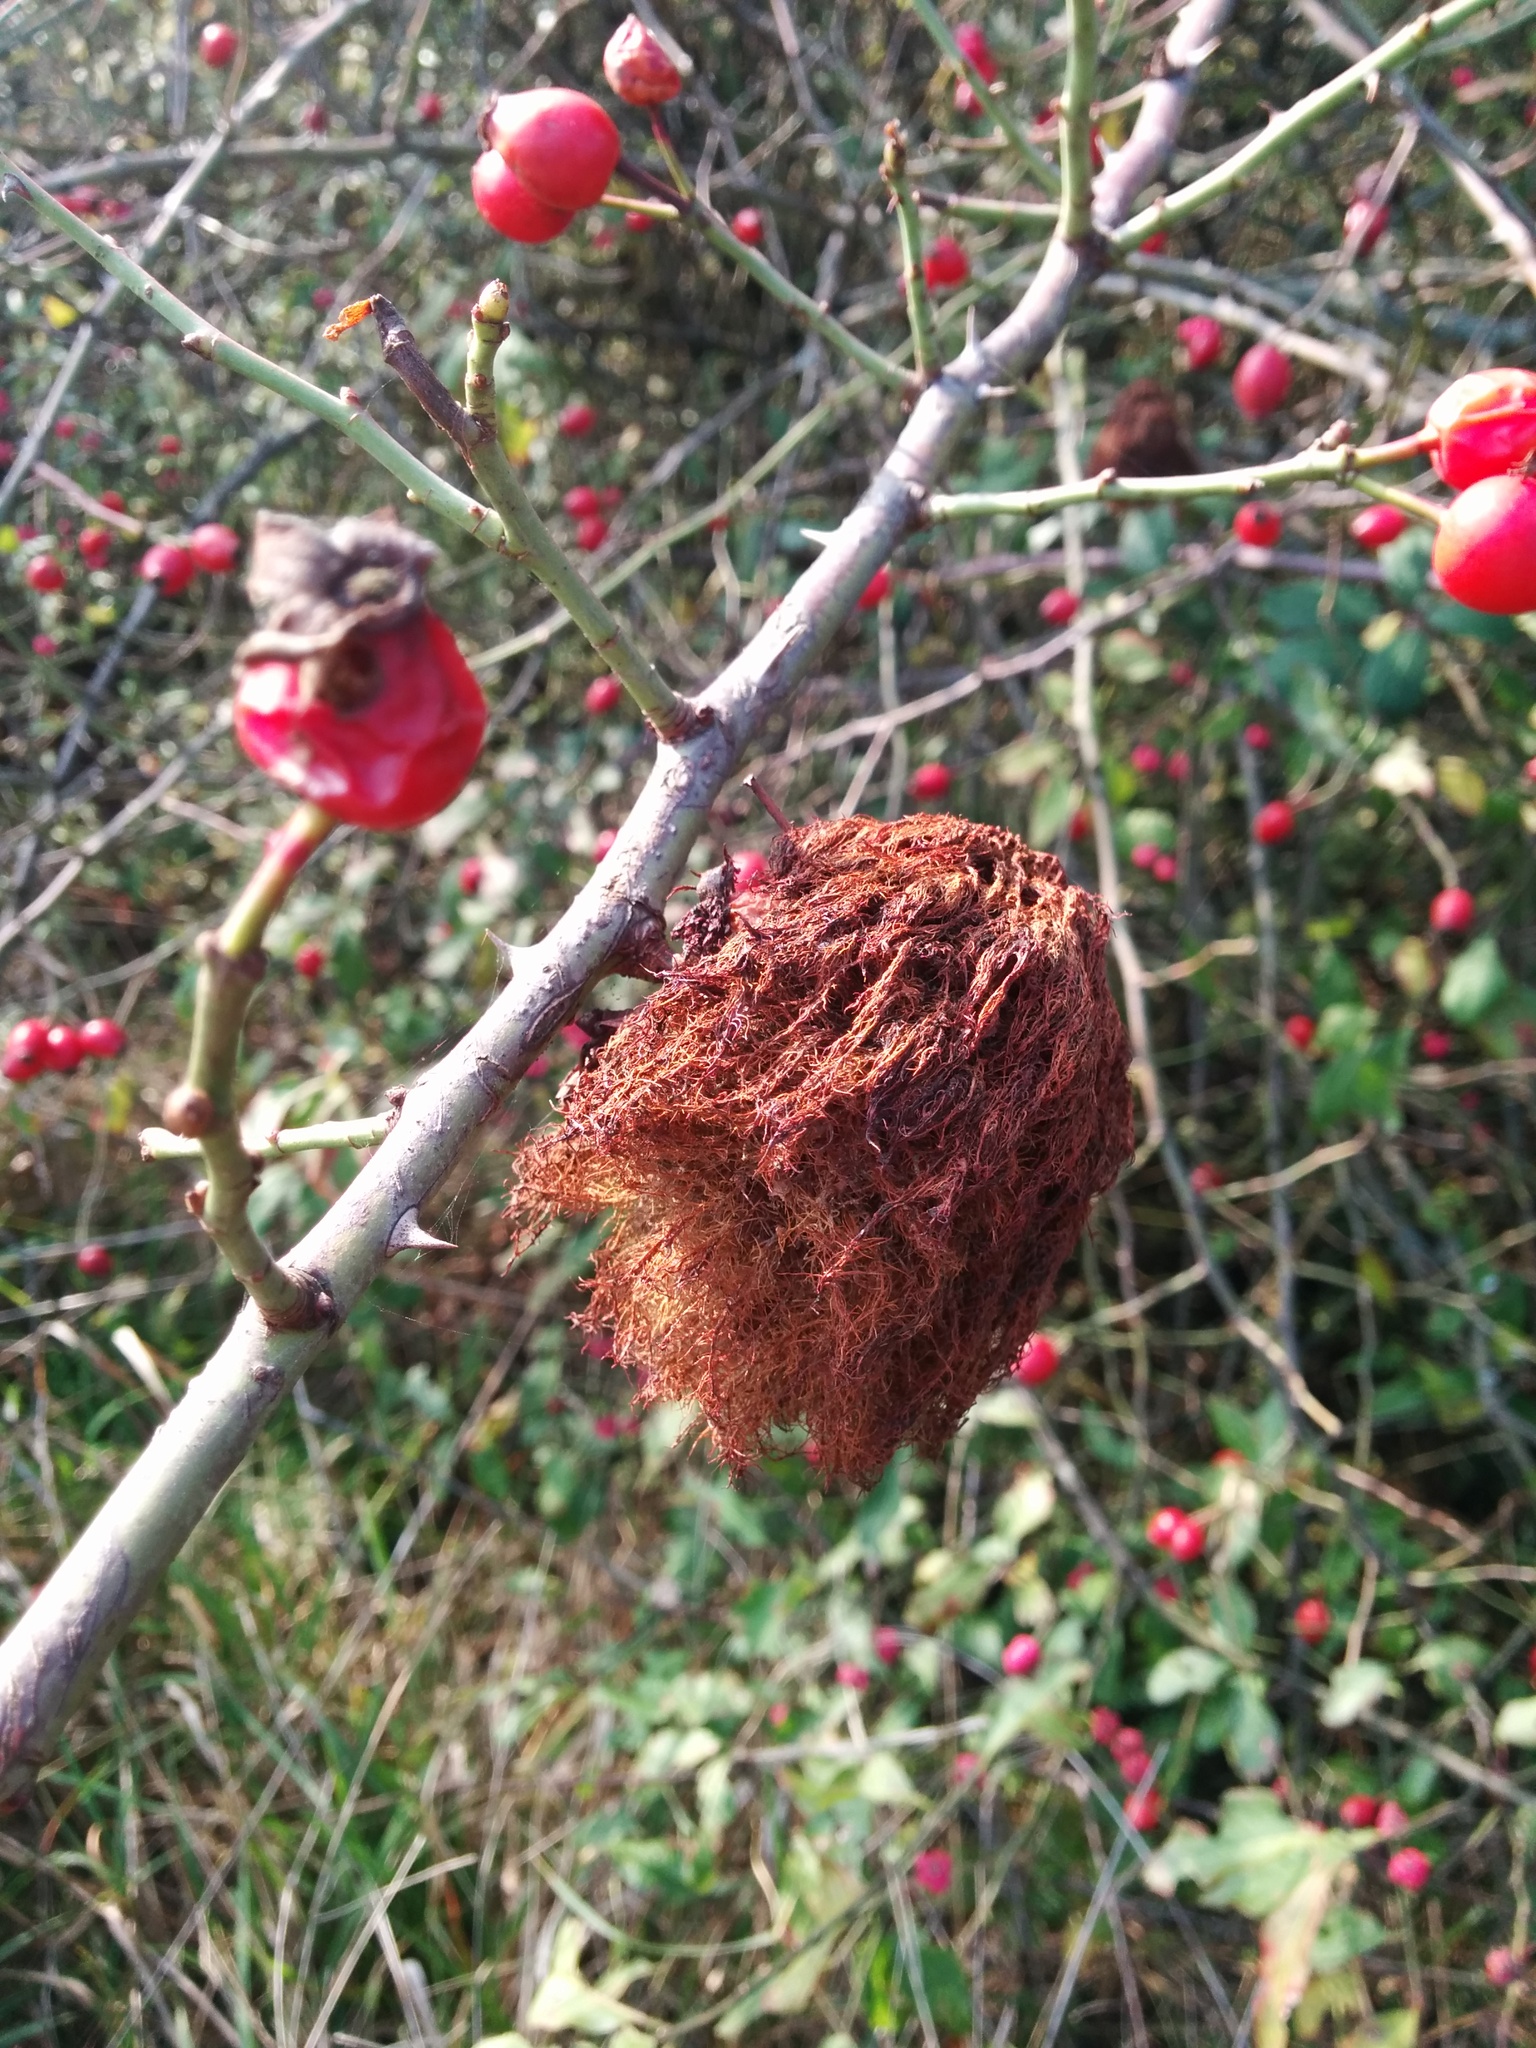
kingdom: Animalia
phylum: Arthropoda
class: Insecta
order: Hymenoptera
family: Cynipidae
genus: Diplolepis
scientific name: Diplolepis rosae
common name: Bedeguar gall
